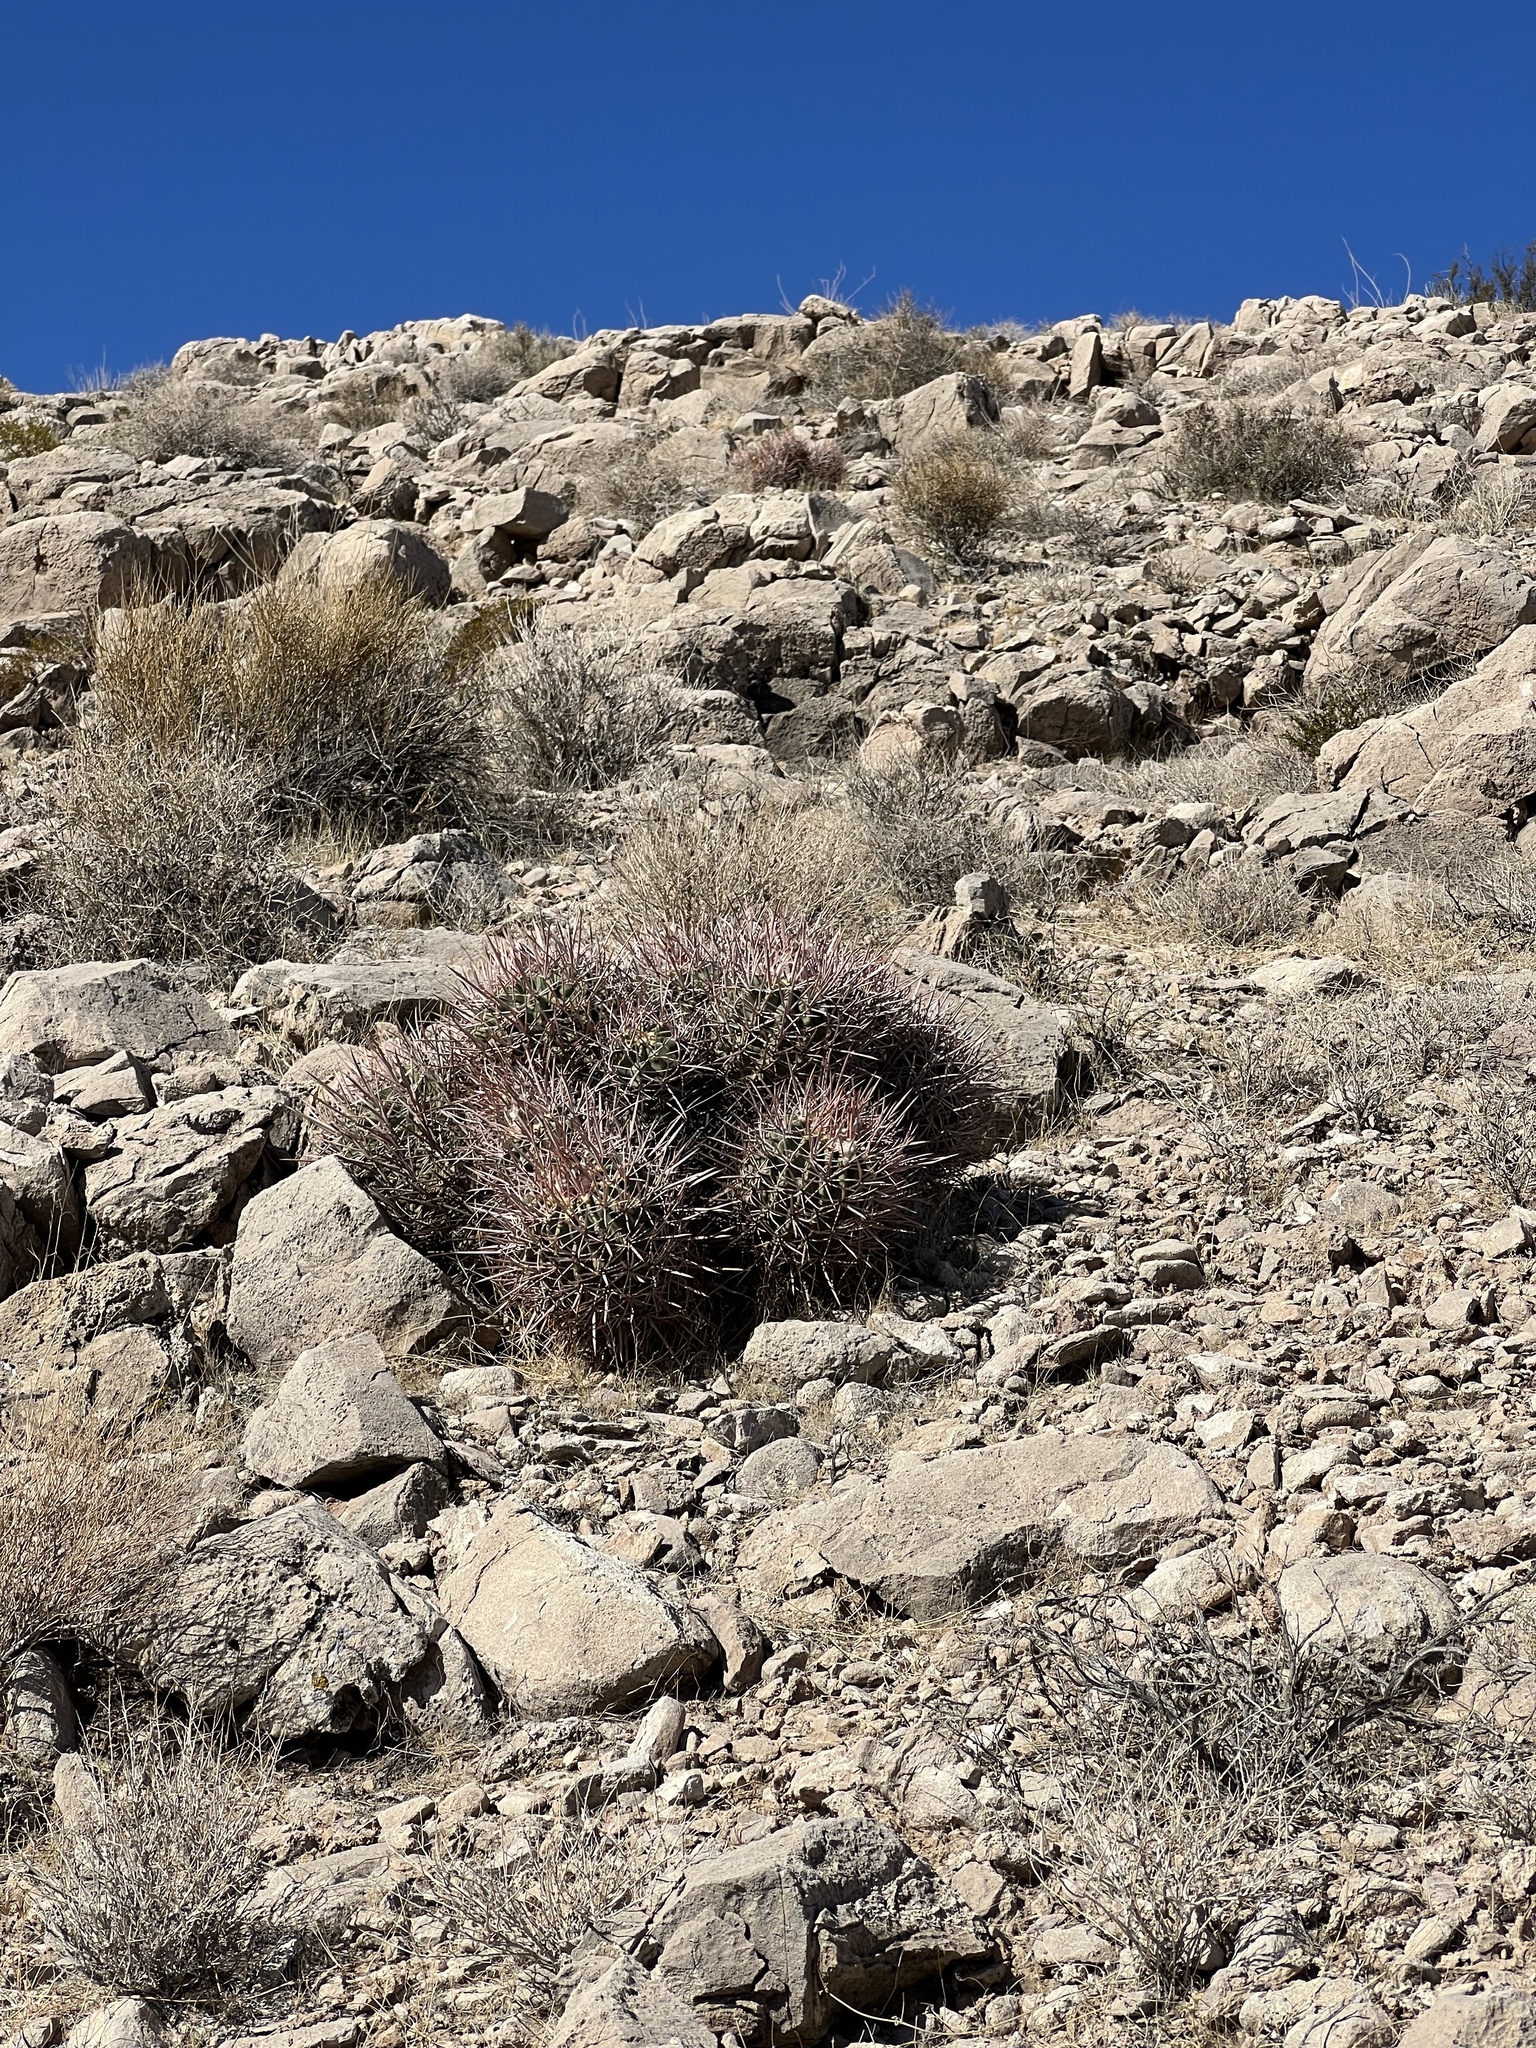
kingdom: Plantae
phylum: Tracheophyta
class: Magnoliopsida
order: Caryophyllales
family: Cactaceae
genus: Echinocactus
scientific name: Echinocactus polycephalus
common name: Cottontop cactus
